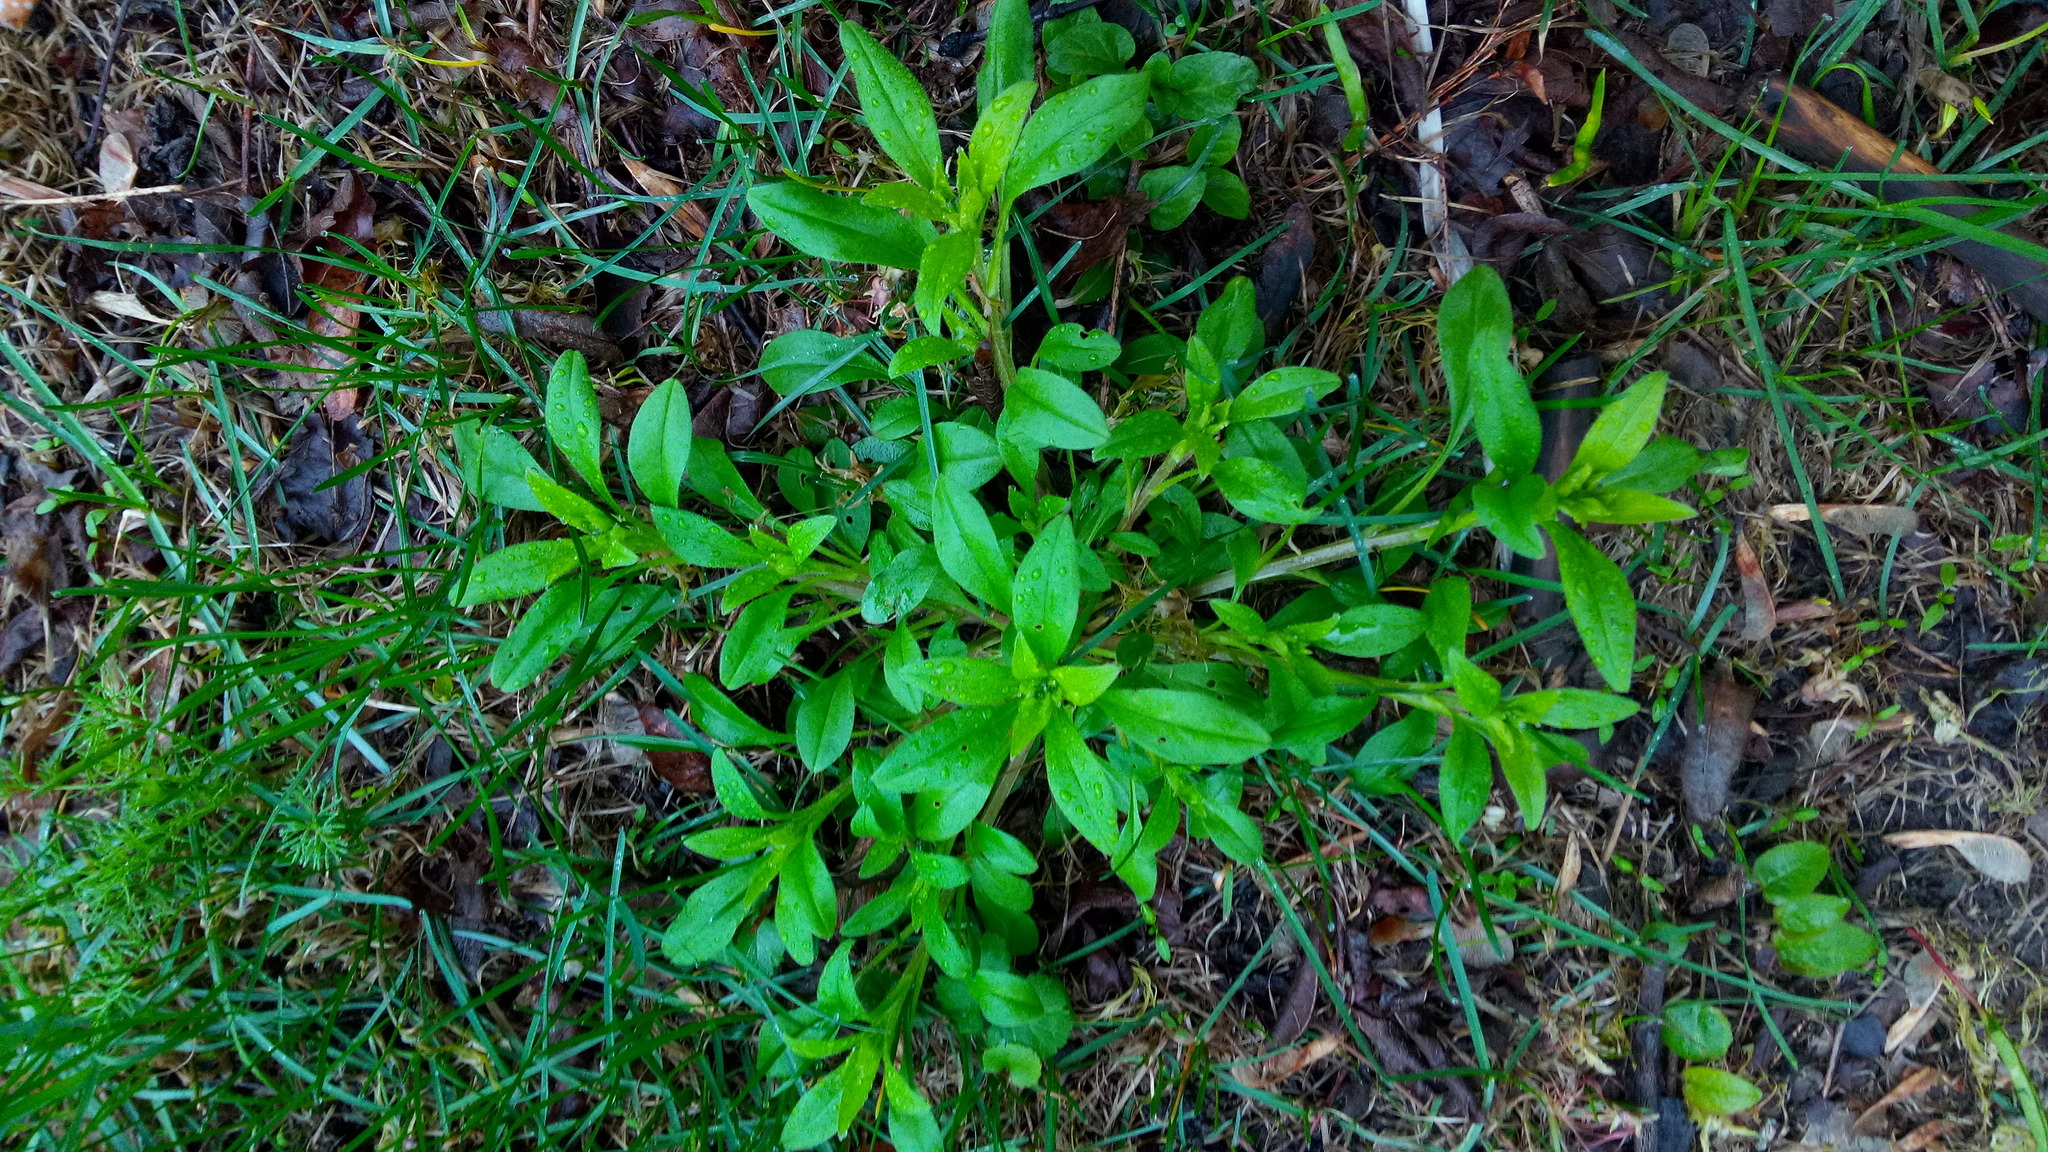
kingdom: Plantae
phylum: Tracheophyta
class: Magnoliopsida
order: Boraginales
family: Boraginaceae
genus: Myosotis
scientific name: Myosotis sparsiflora
